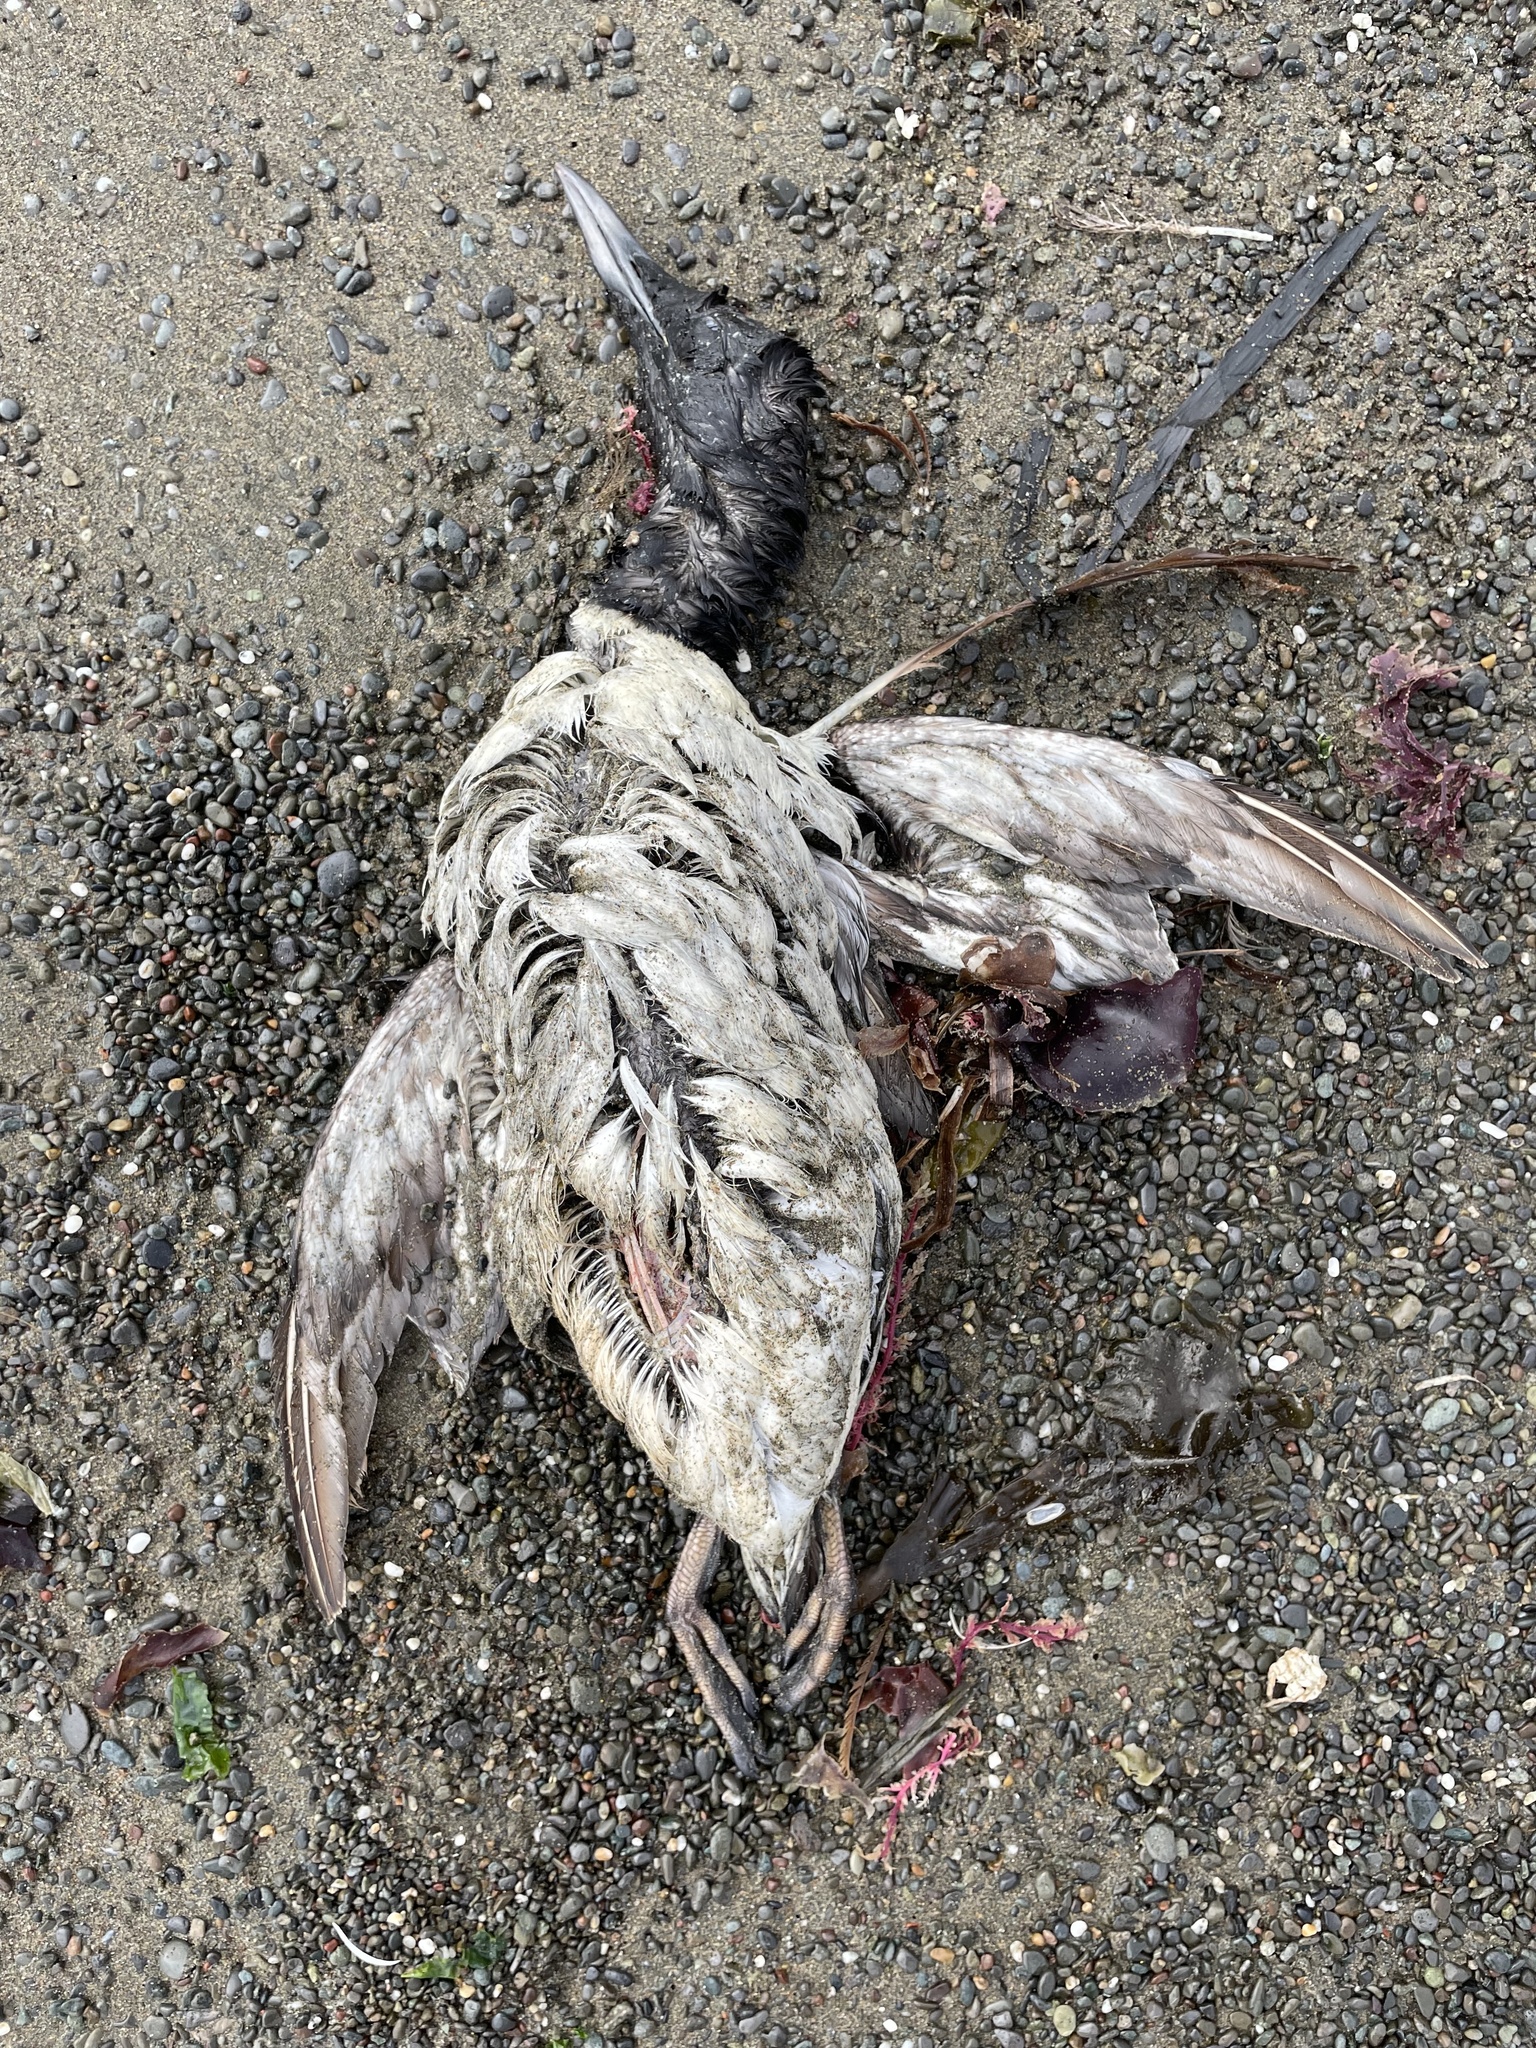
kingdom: Animalia
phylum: Chordata
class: Aves
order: Charadriiformes
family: Alcidae
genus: Uria
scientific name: Uria aalge
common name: Common murre
